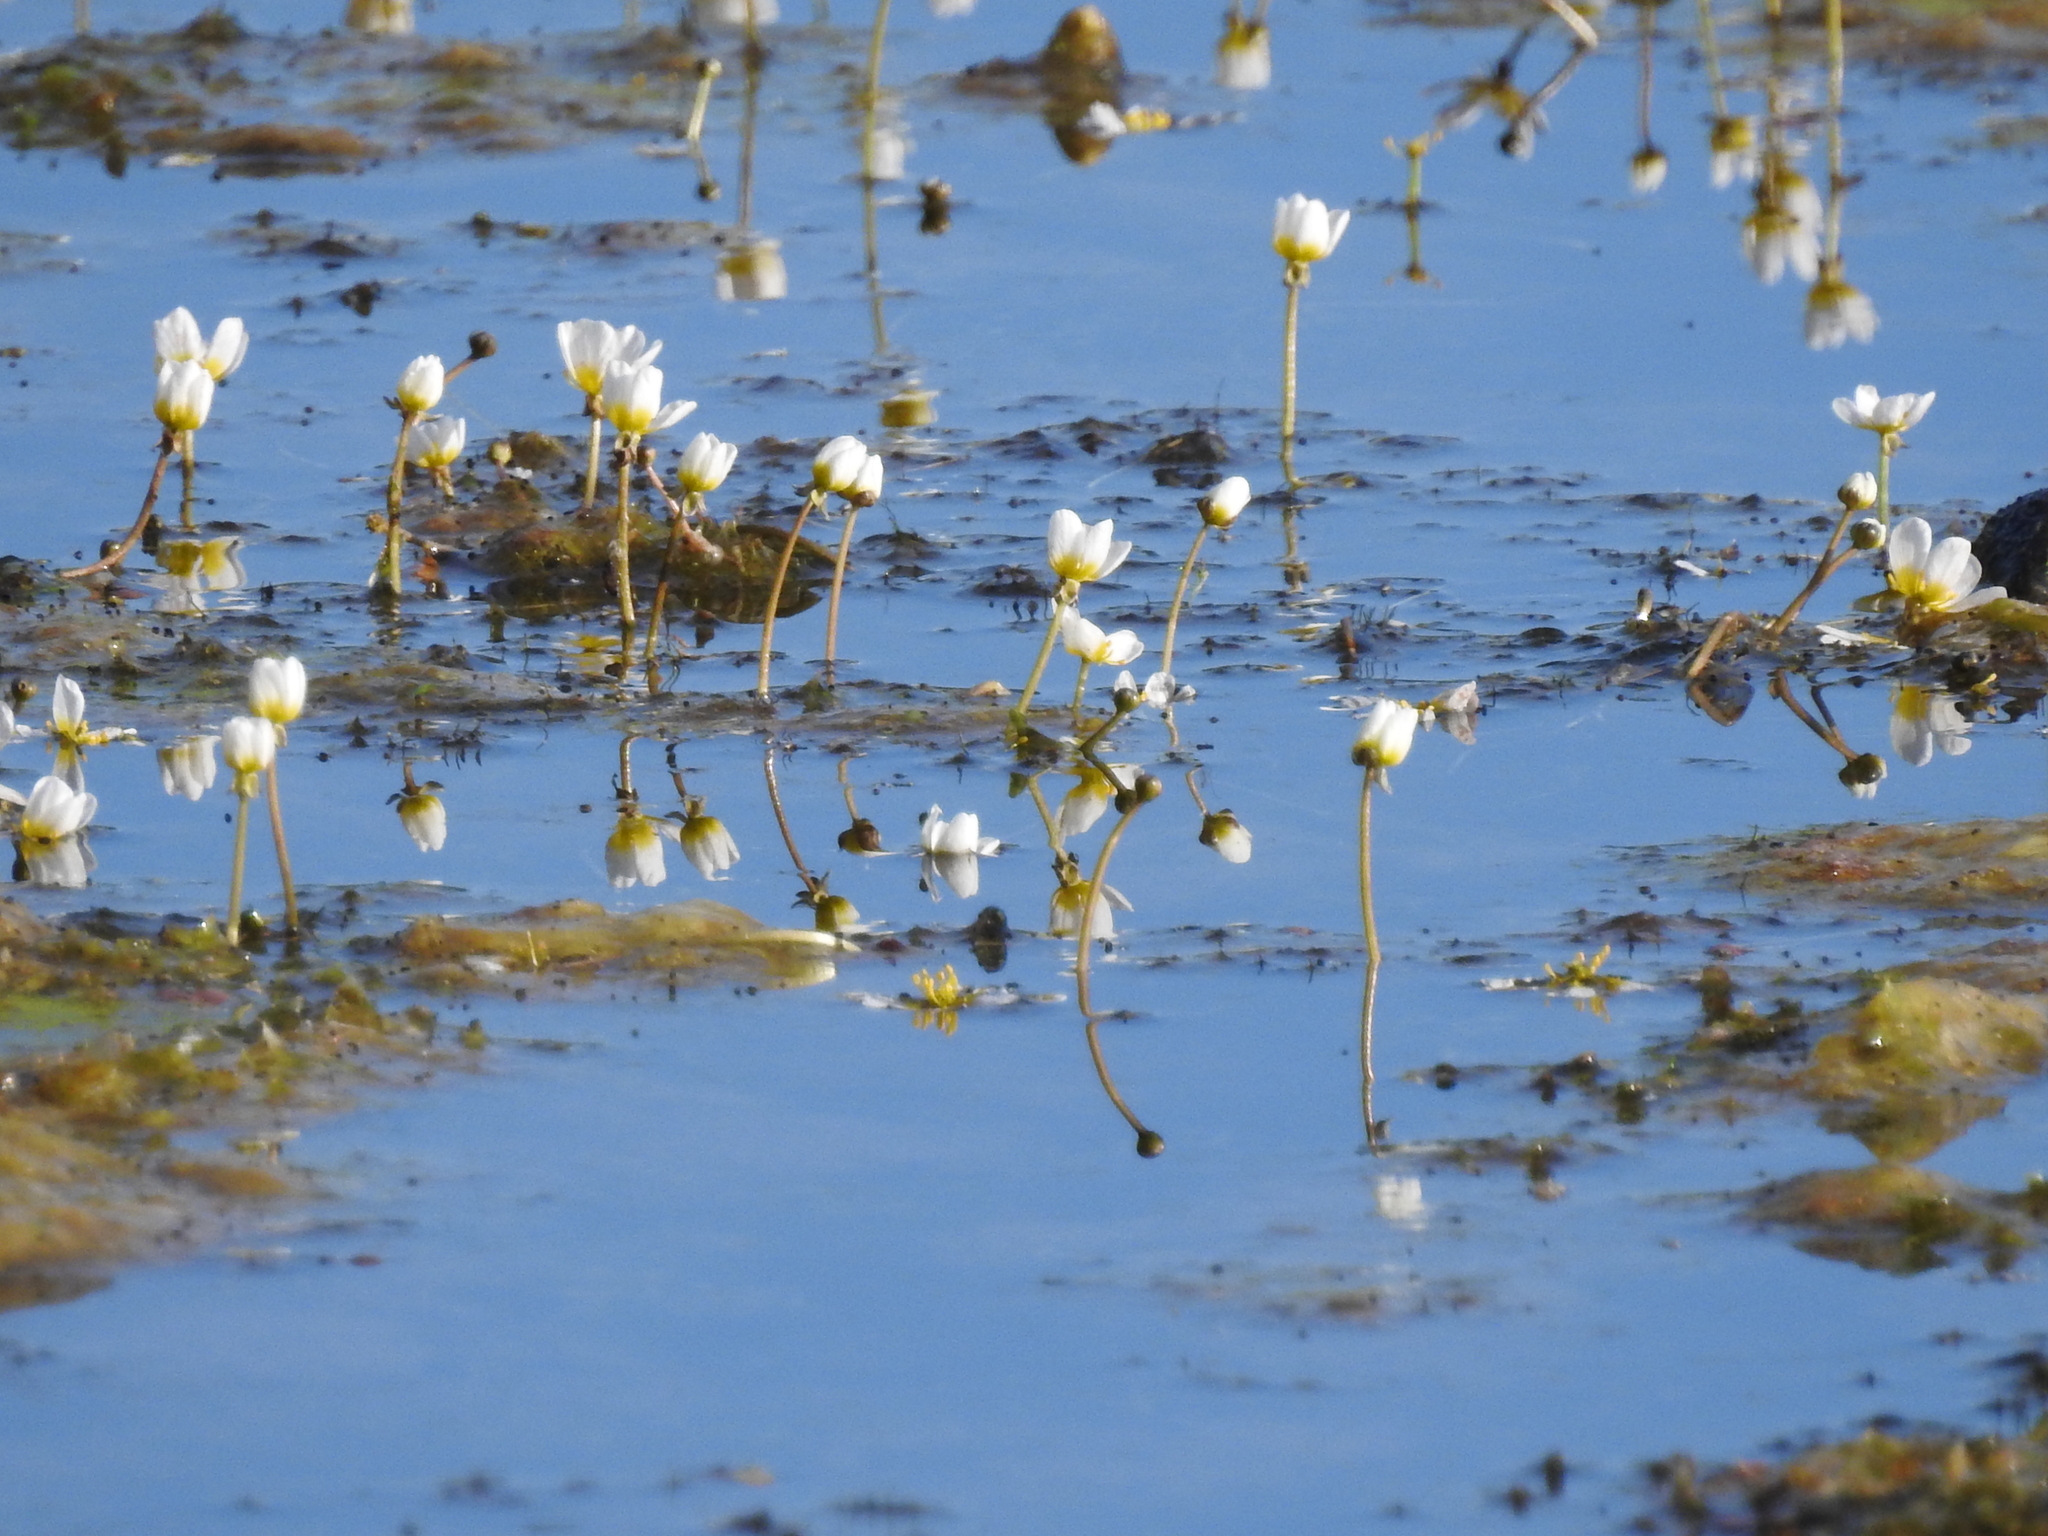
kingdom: Plantae
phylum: Tracheophyta
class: Magnoliopsida
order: Ranunculales
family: Ranunculaceae
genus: Ranunculus
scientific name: Ranunculus trichophyllus
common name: Thread-leaved water-crowfoot
